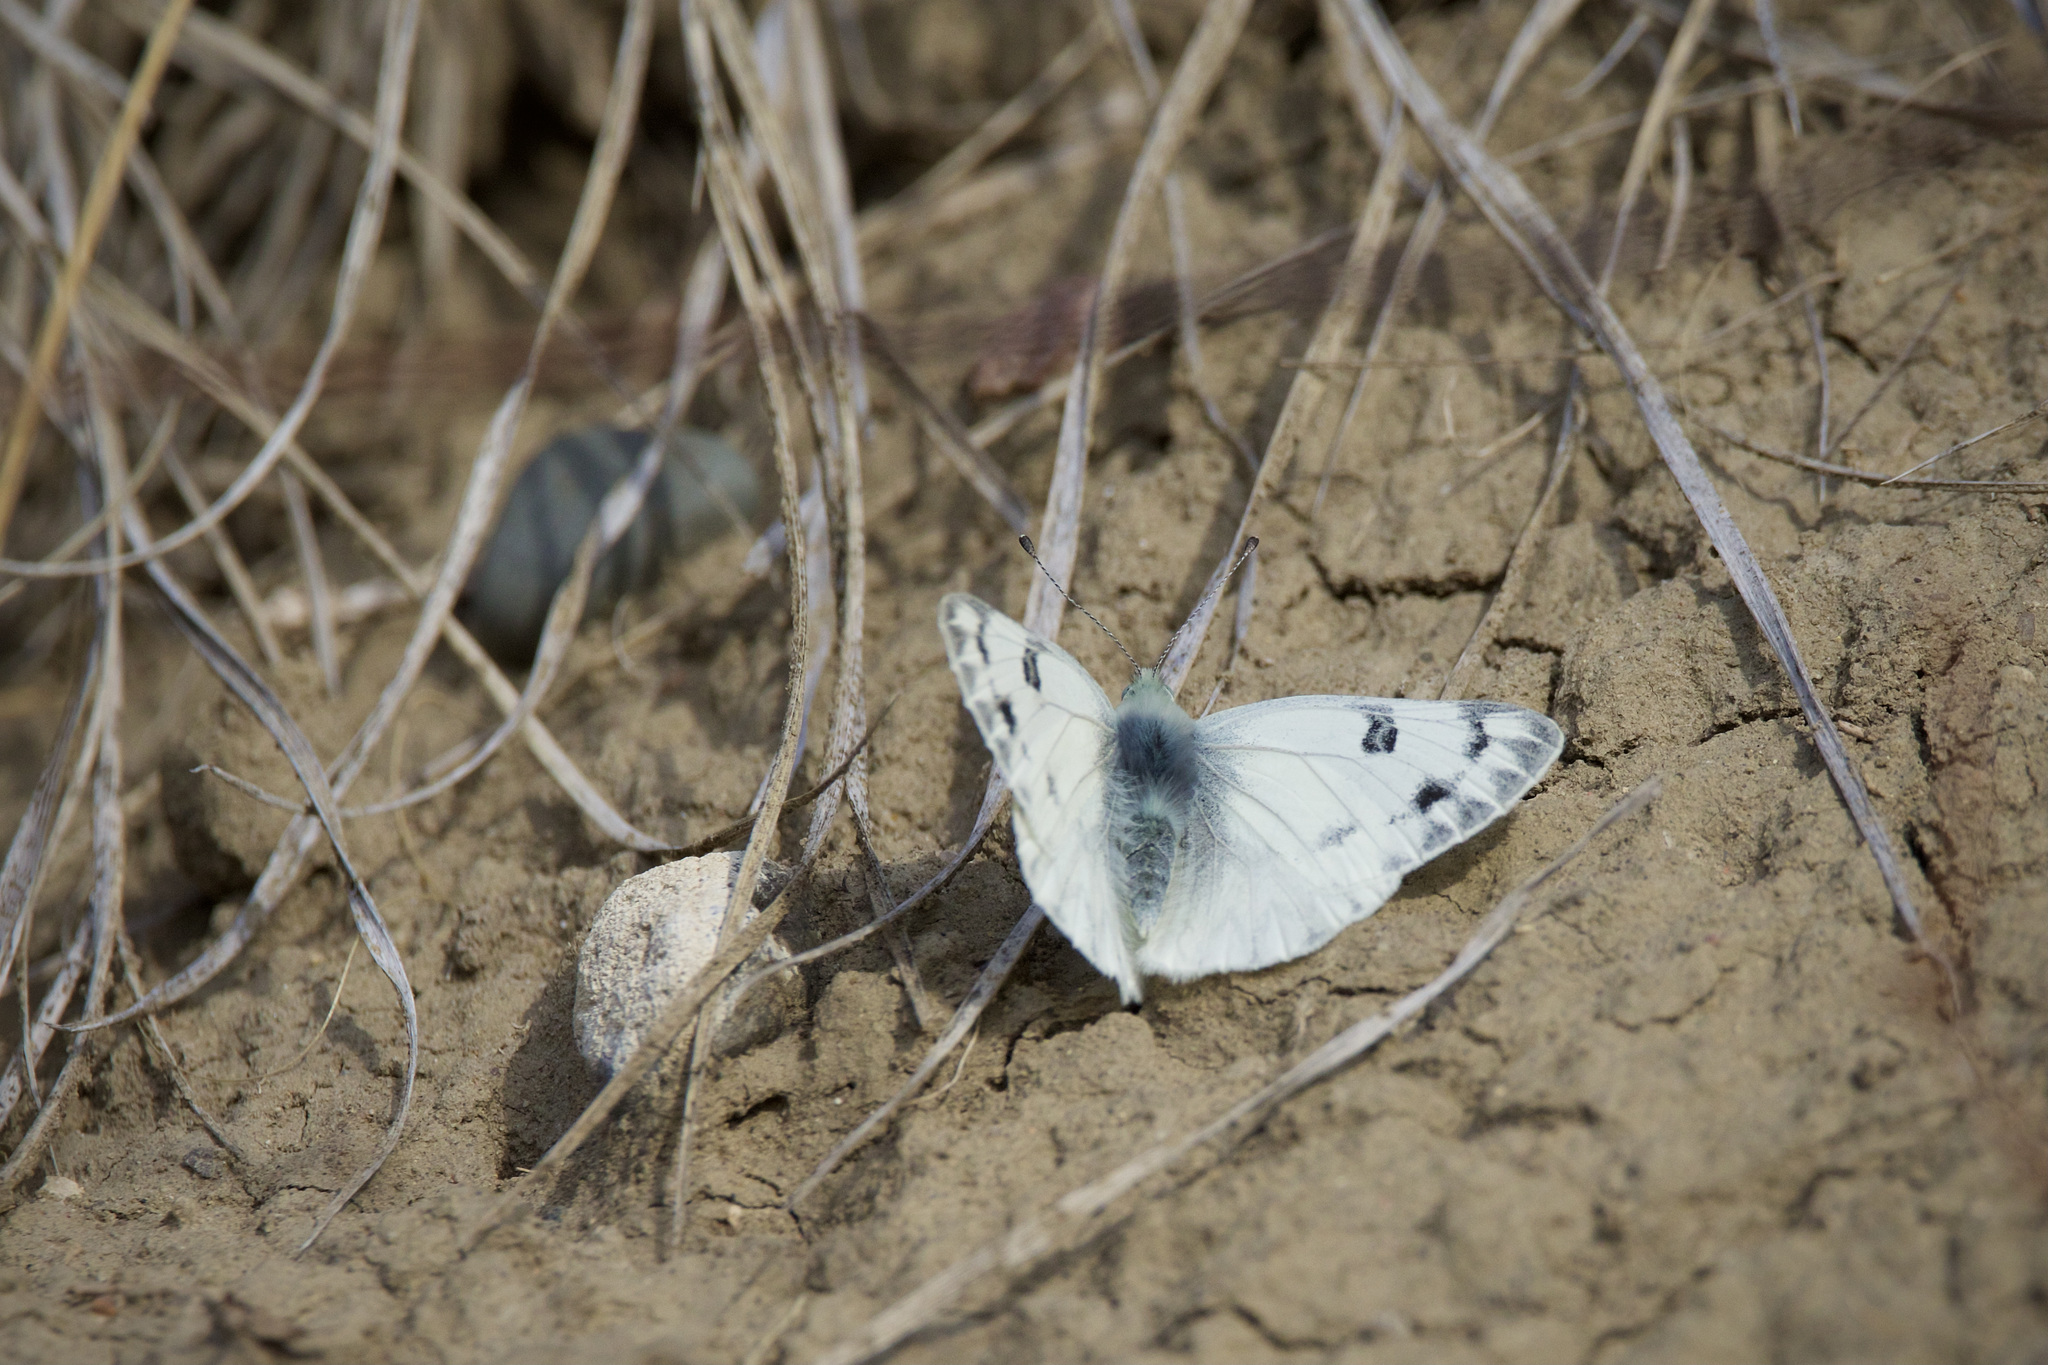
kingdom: Animalia
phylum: Arthropoda
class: Insecta
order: Lepidoptera
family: Pieridae
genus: Pontia
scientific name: Pontia occidentalis
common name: Western white
